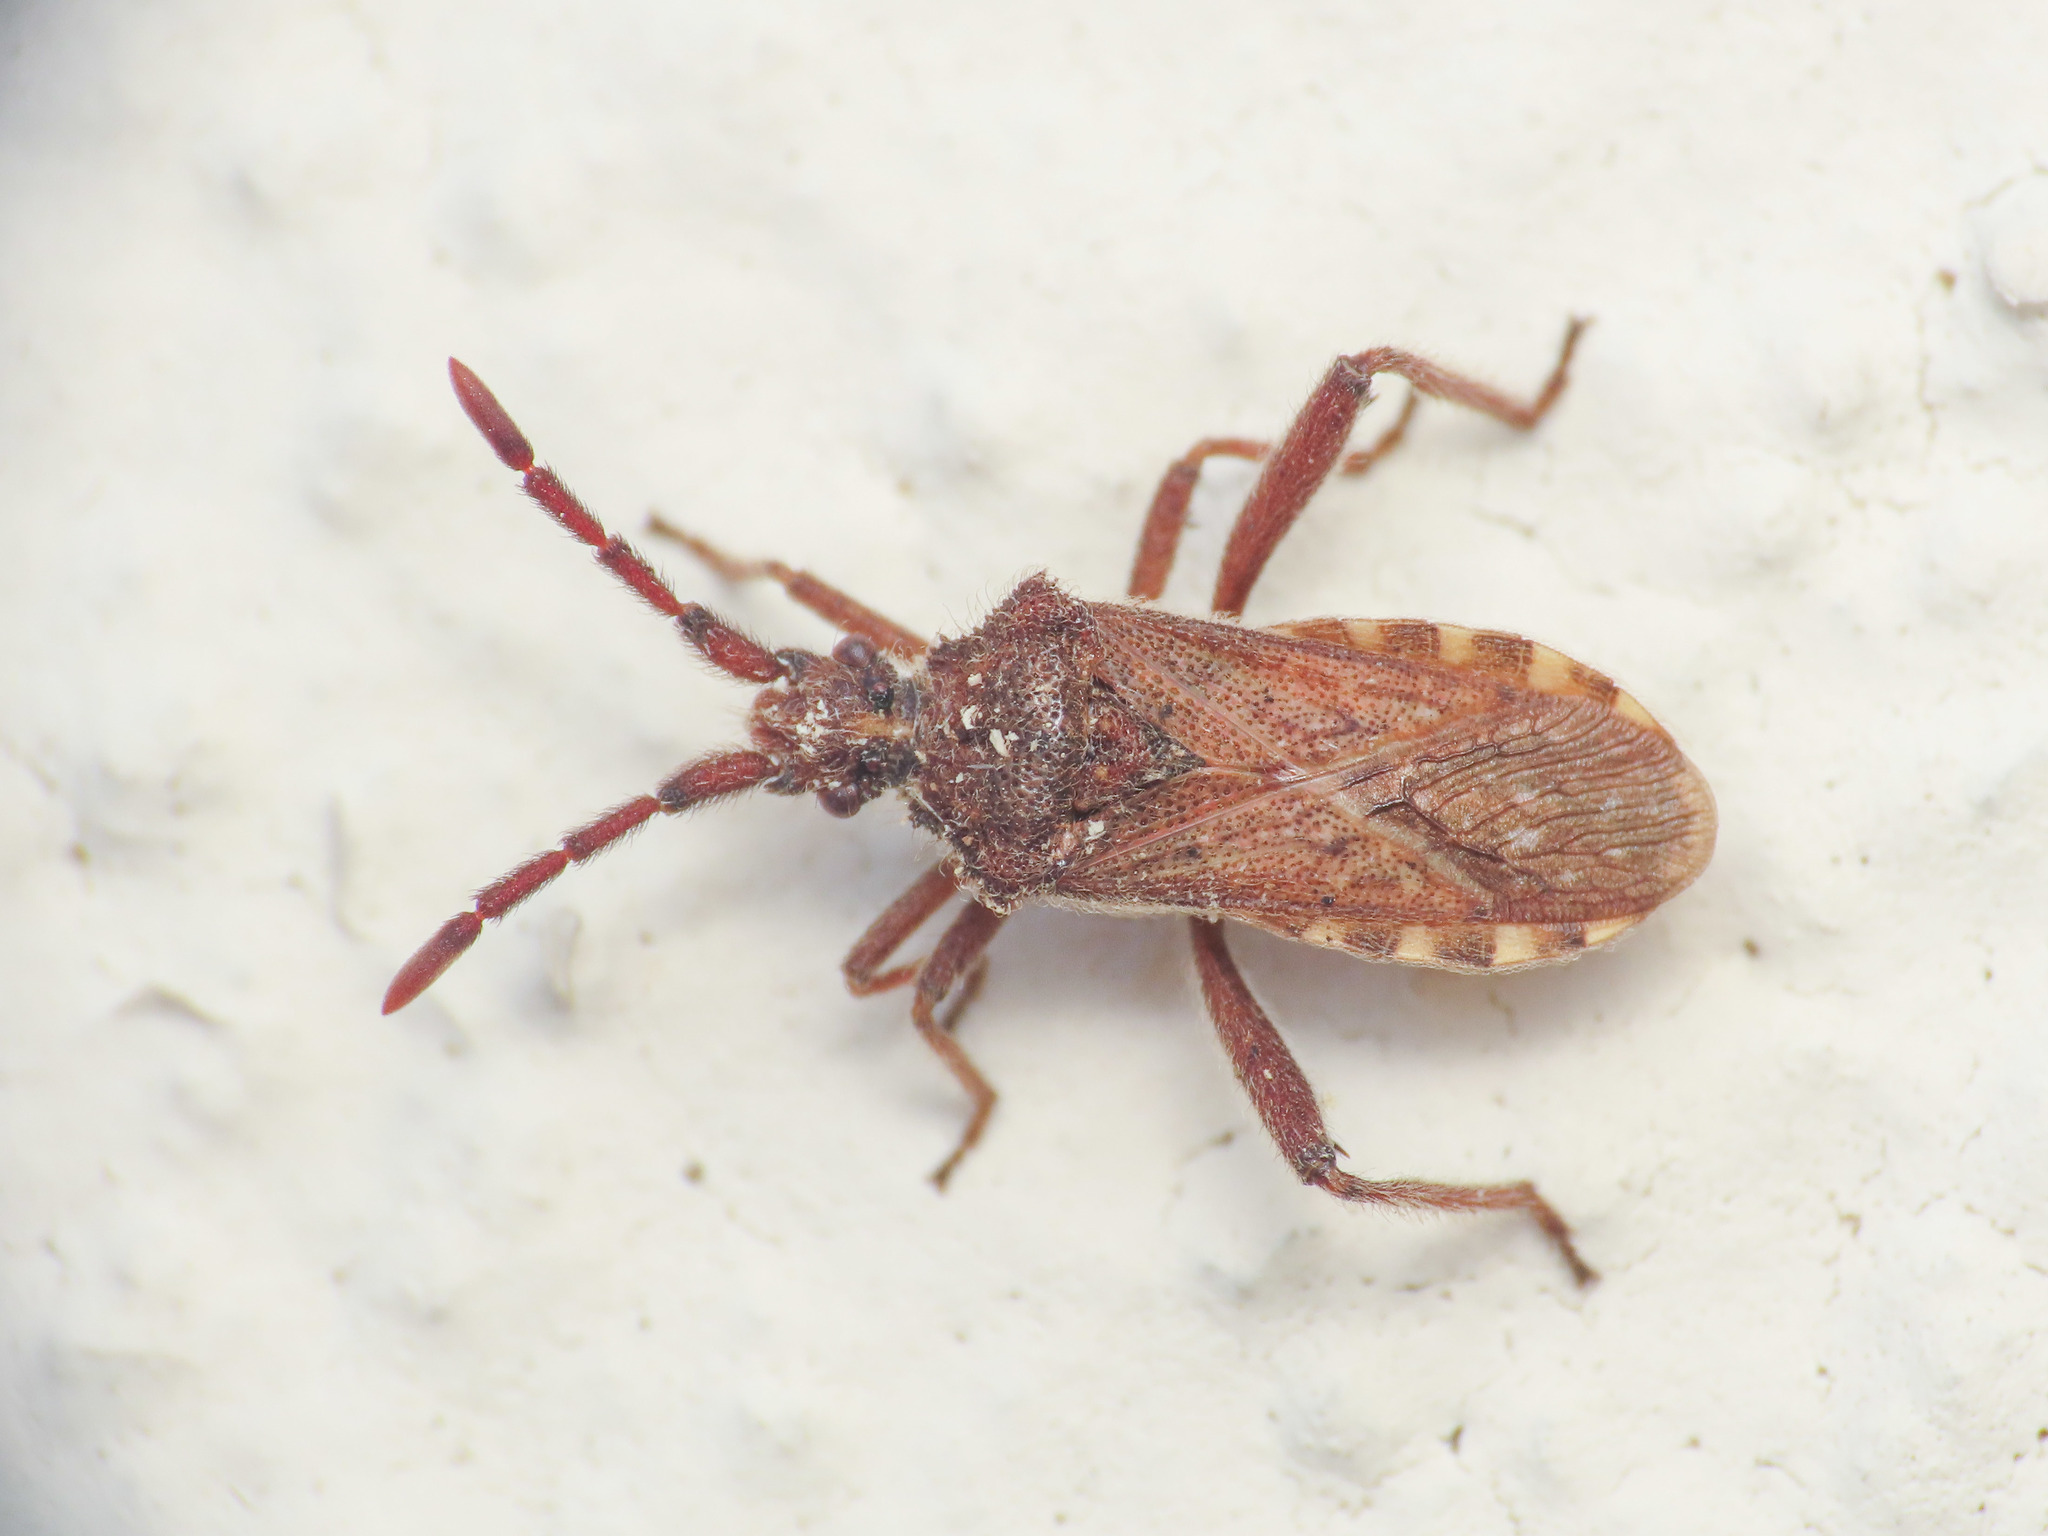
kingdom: Animalia
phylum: Arthropoda
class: Insecta
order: Hemiptera
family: Coreidae
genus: Loxocnemis
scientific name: Loxocnemis dentator
